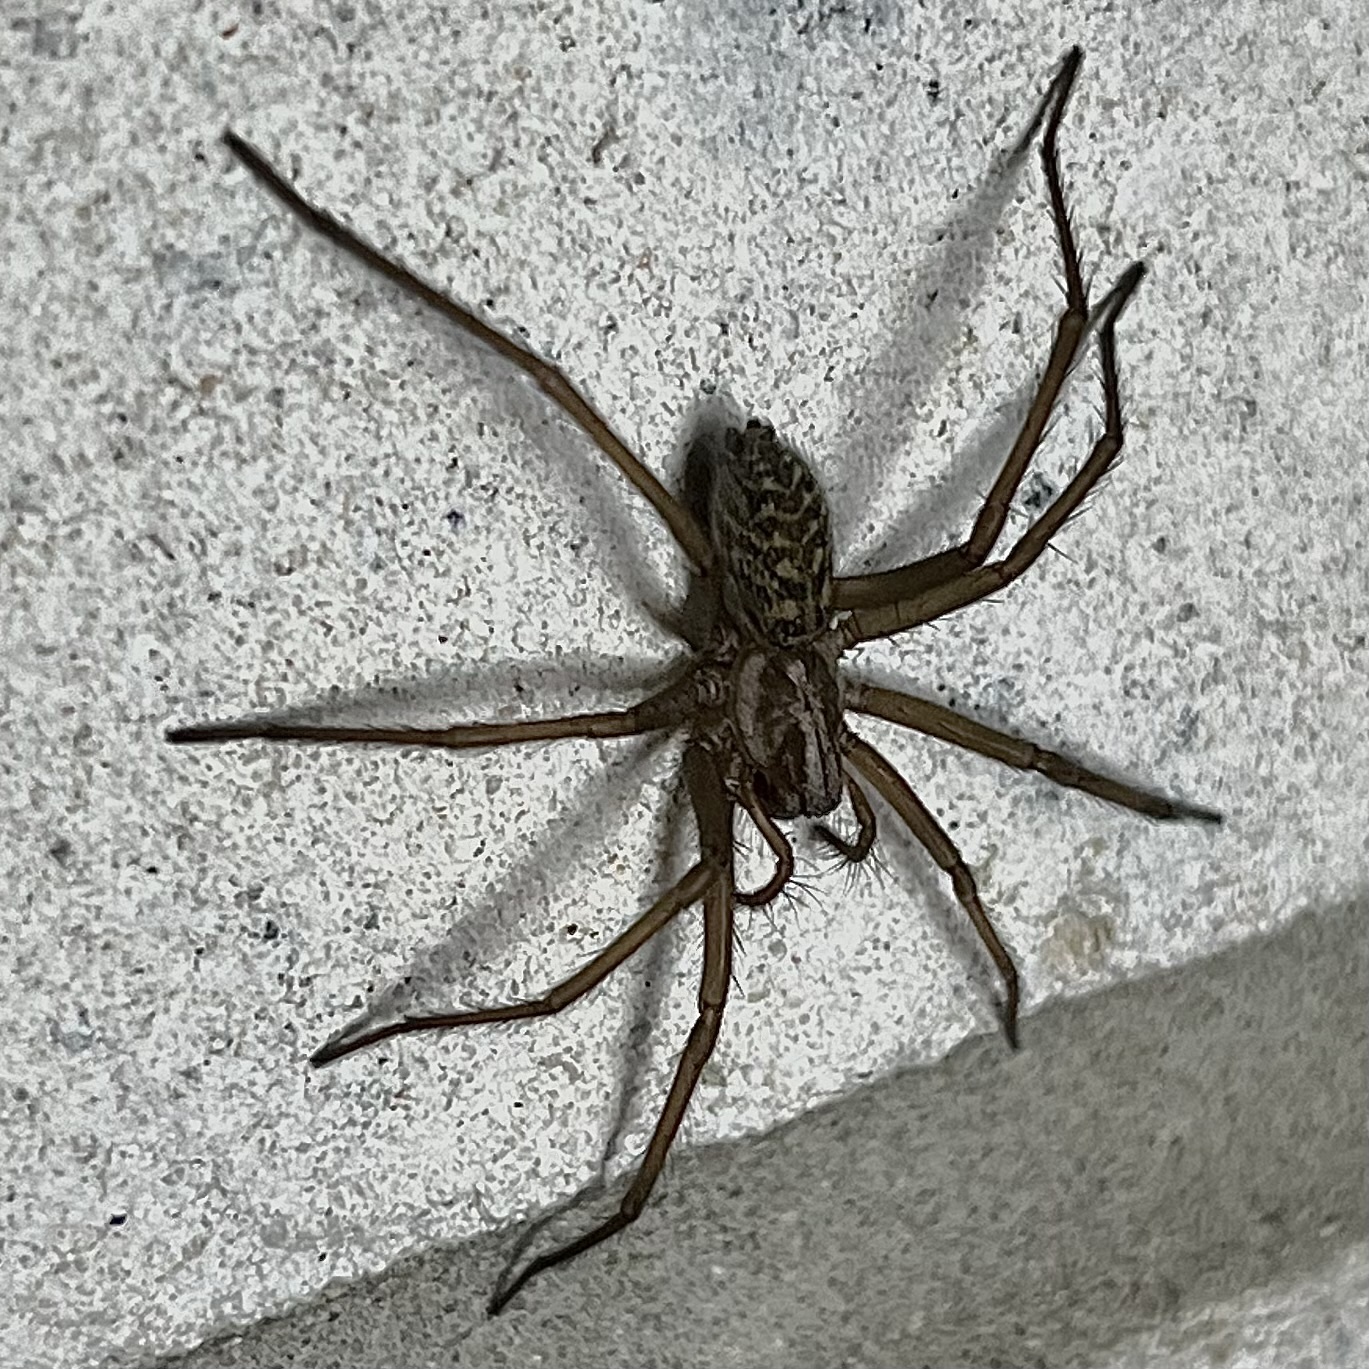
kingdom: Animalia
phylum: Arthropoda
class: Arachnida
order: Araneae
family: Agelenidae
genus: Eratigena
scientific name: Eratigena atrica
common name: Giant house spider
